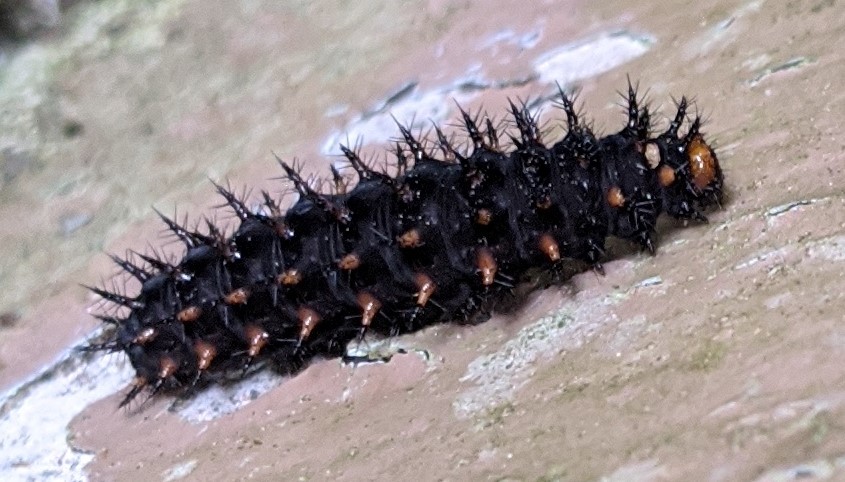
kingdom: Animalia
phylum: Arthropoda
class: Insecta
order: Lepidoptera
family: Nymphalidae
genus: Speyeria
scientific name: Speyeria cybele
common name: Great spangled fritillary
